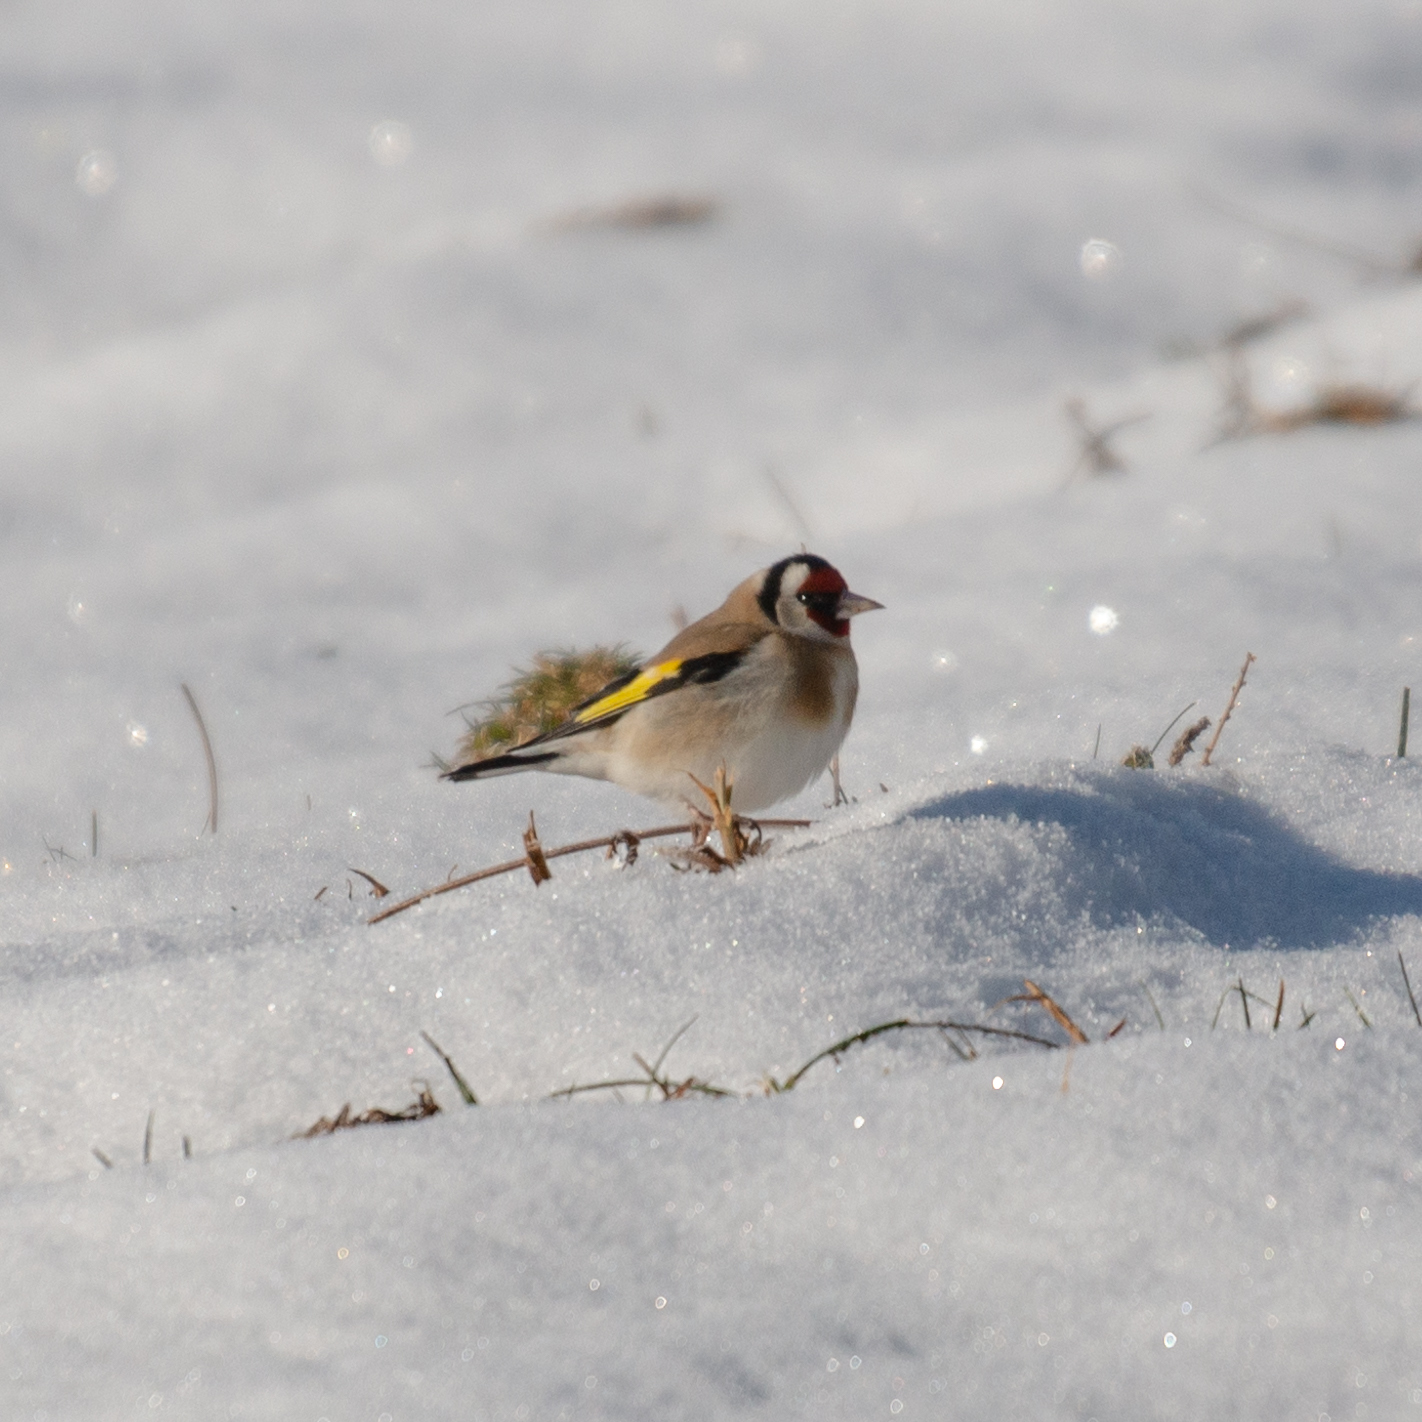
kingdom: Animalia
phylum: Chordata
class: Aves
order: Passeriformes
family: Fringillidae
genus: Carduelis
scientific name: Carduelis carduelis
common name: European goldfinch
